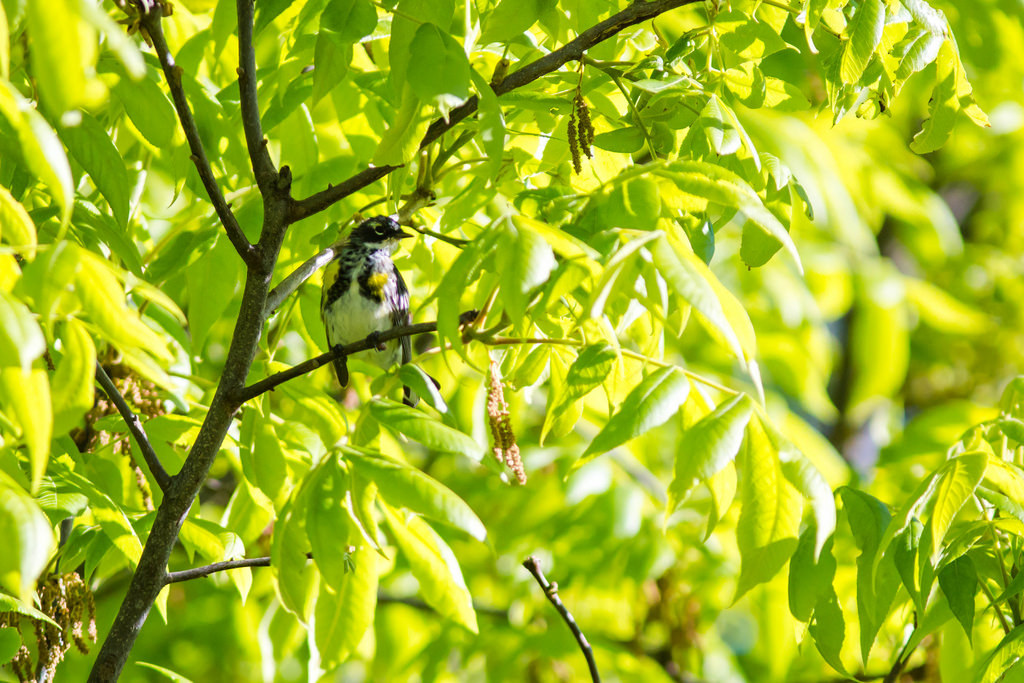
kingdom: Animalia
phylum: Chordata
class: Aves
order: Passeriformes
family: Parulidae
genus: Setophaga
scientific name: Setophaga coronata
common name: Myrtle warbler
